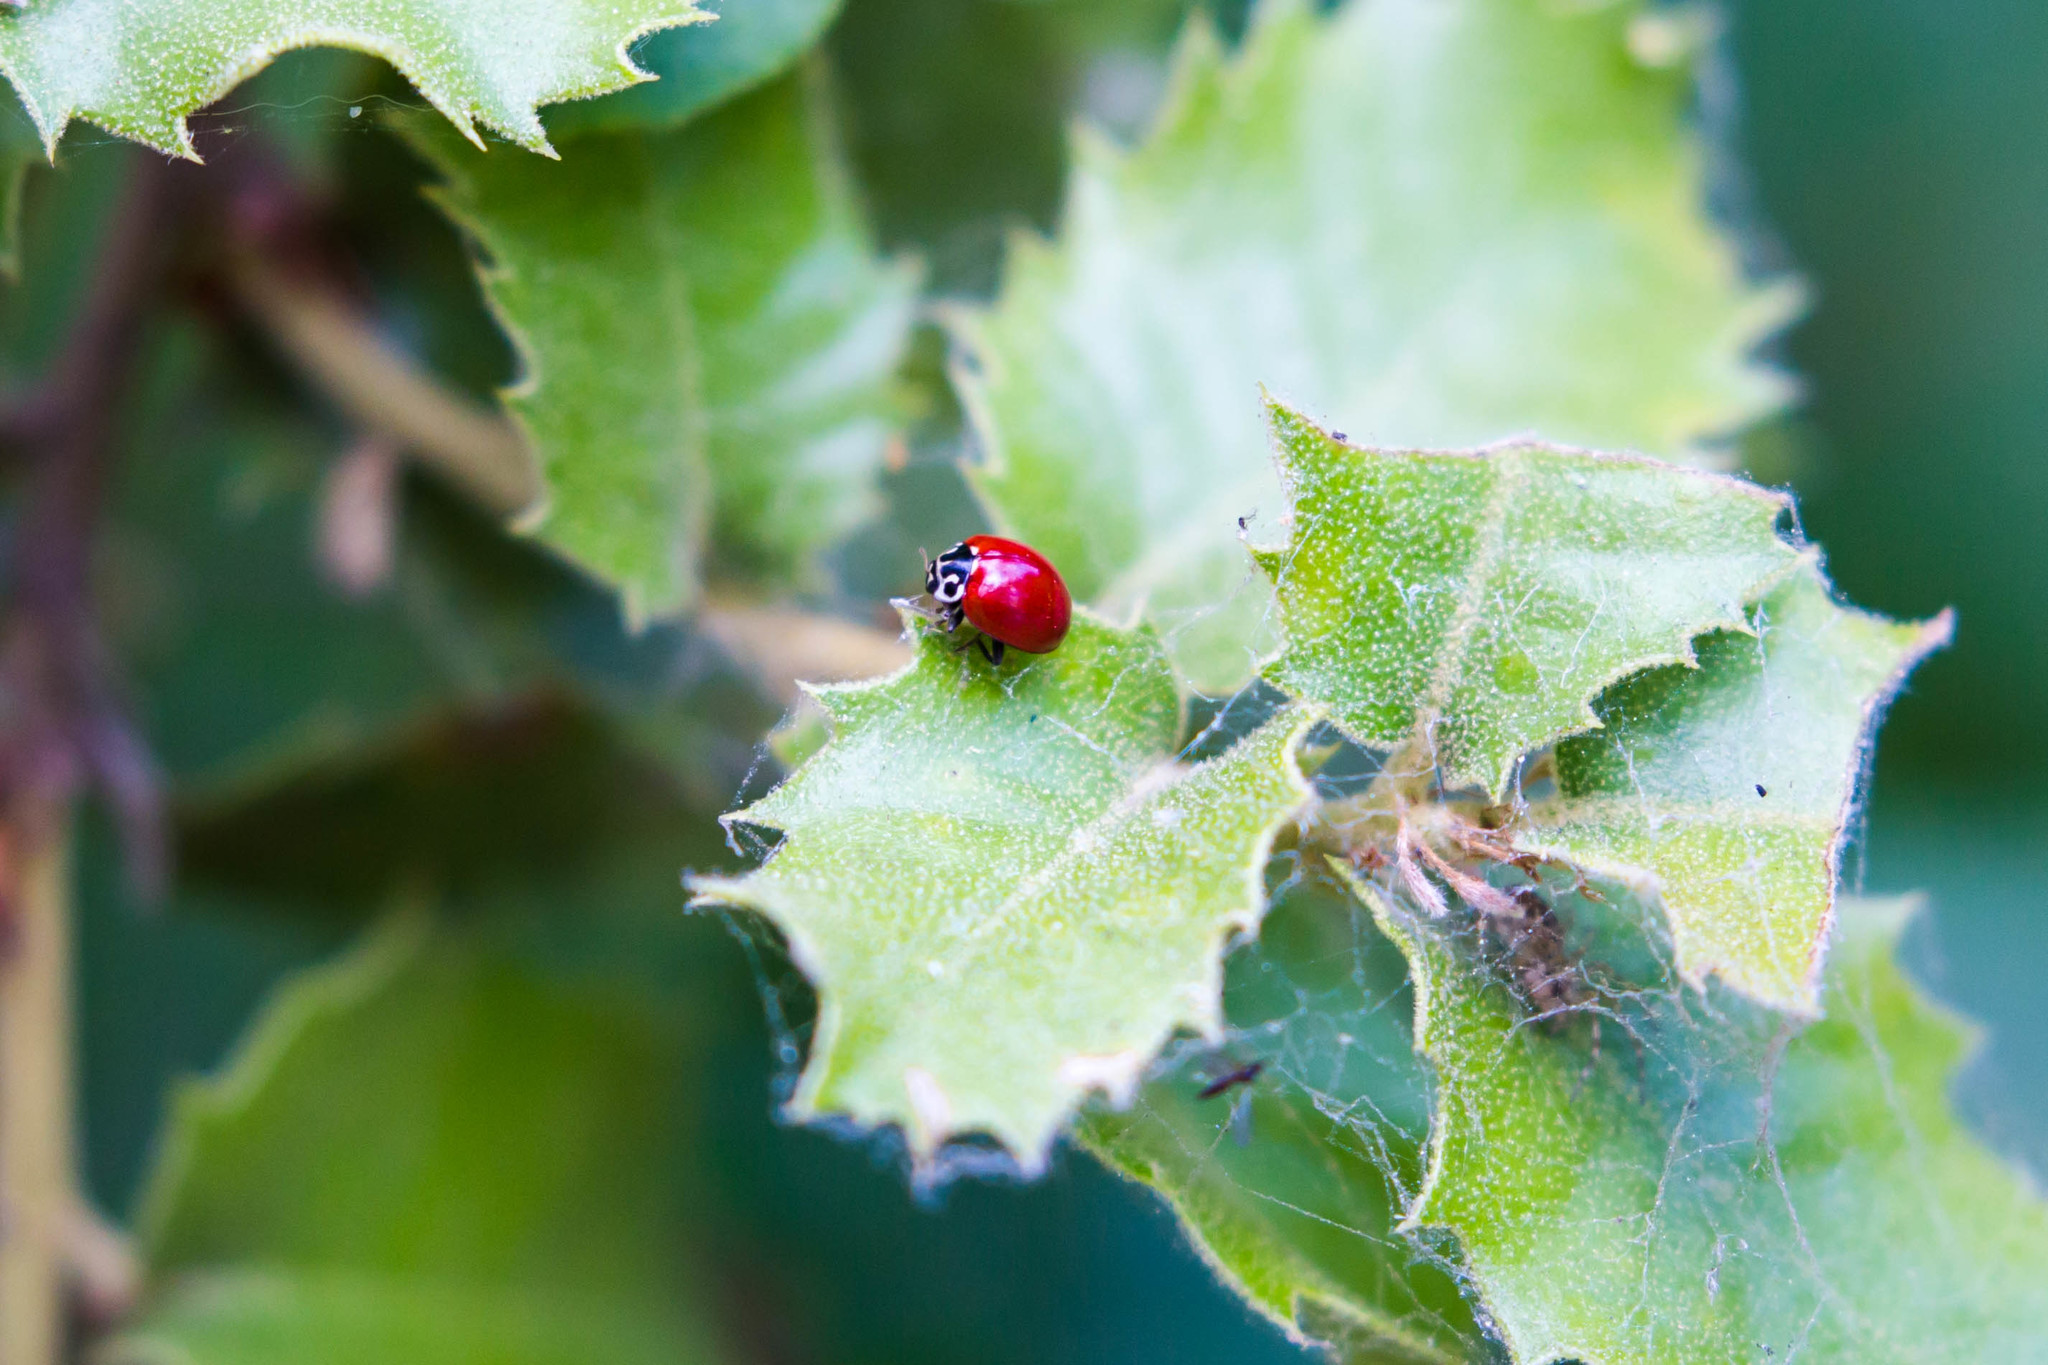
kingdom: Animalia
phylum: Arthropoda
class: Insecta
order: Coleoptera
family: Coccinellidae
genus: Cycloneda
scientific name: Cycloneda polita
